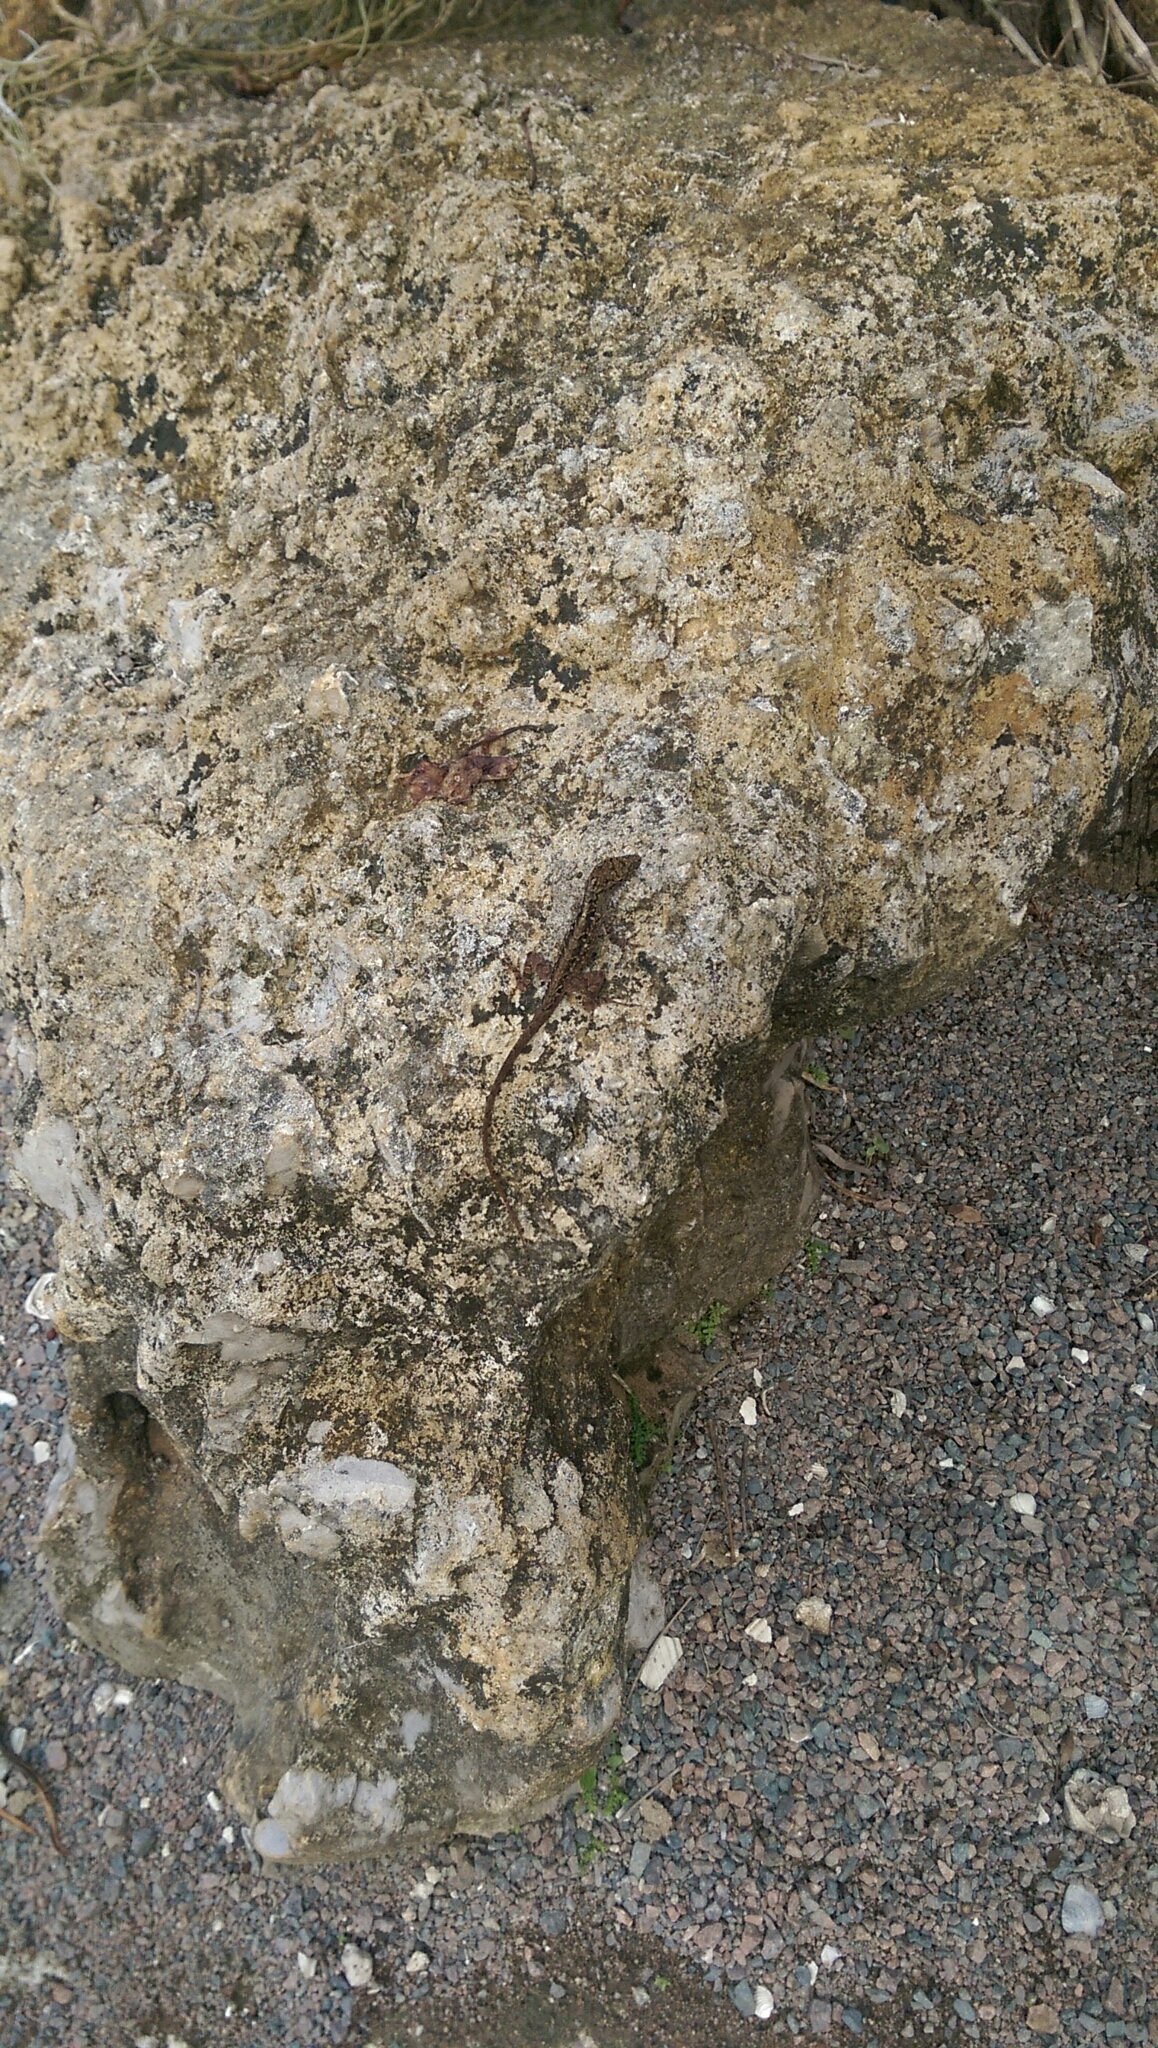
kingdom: Animalia
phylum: Chordata
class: Squamata
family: Dactyloidae
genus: Anolis
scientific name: Anolis sagrei
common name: Brown anole
